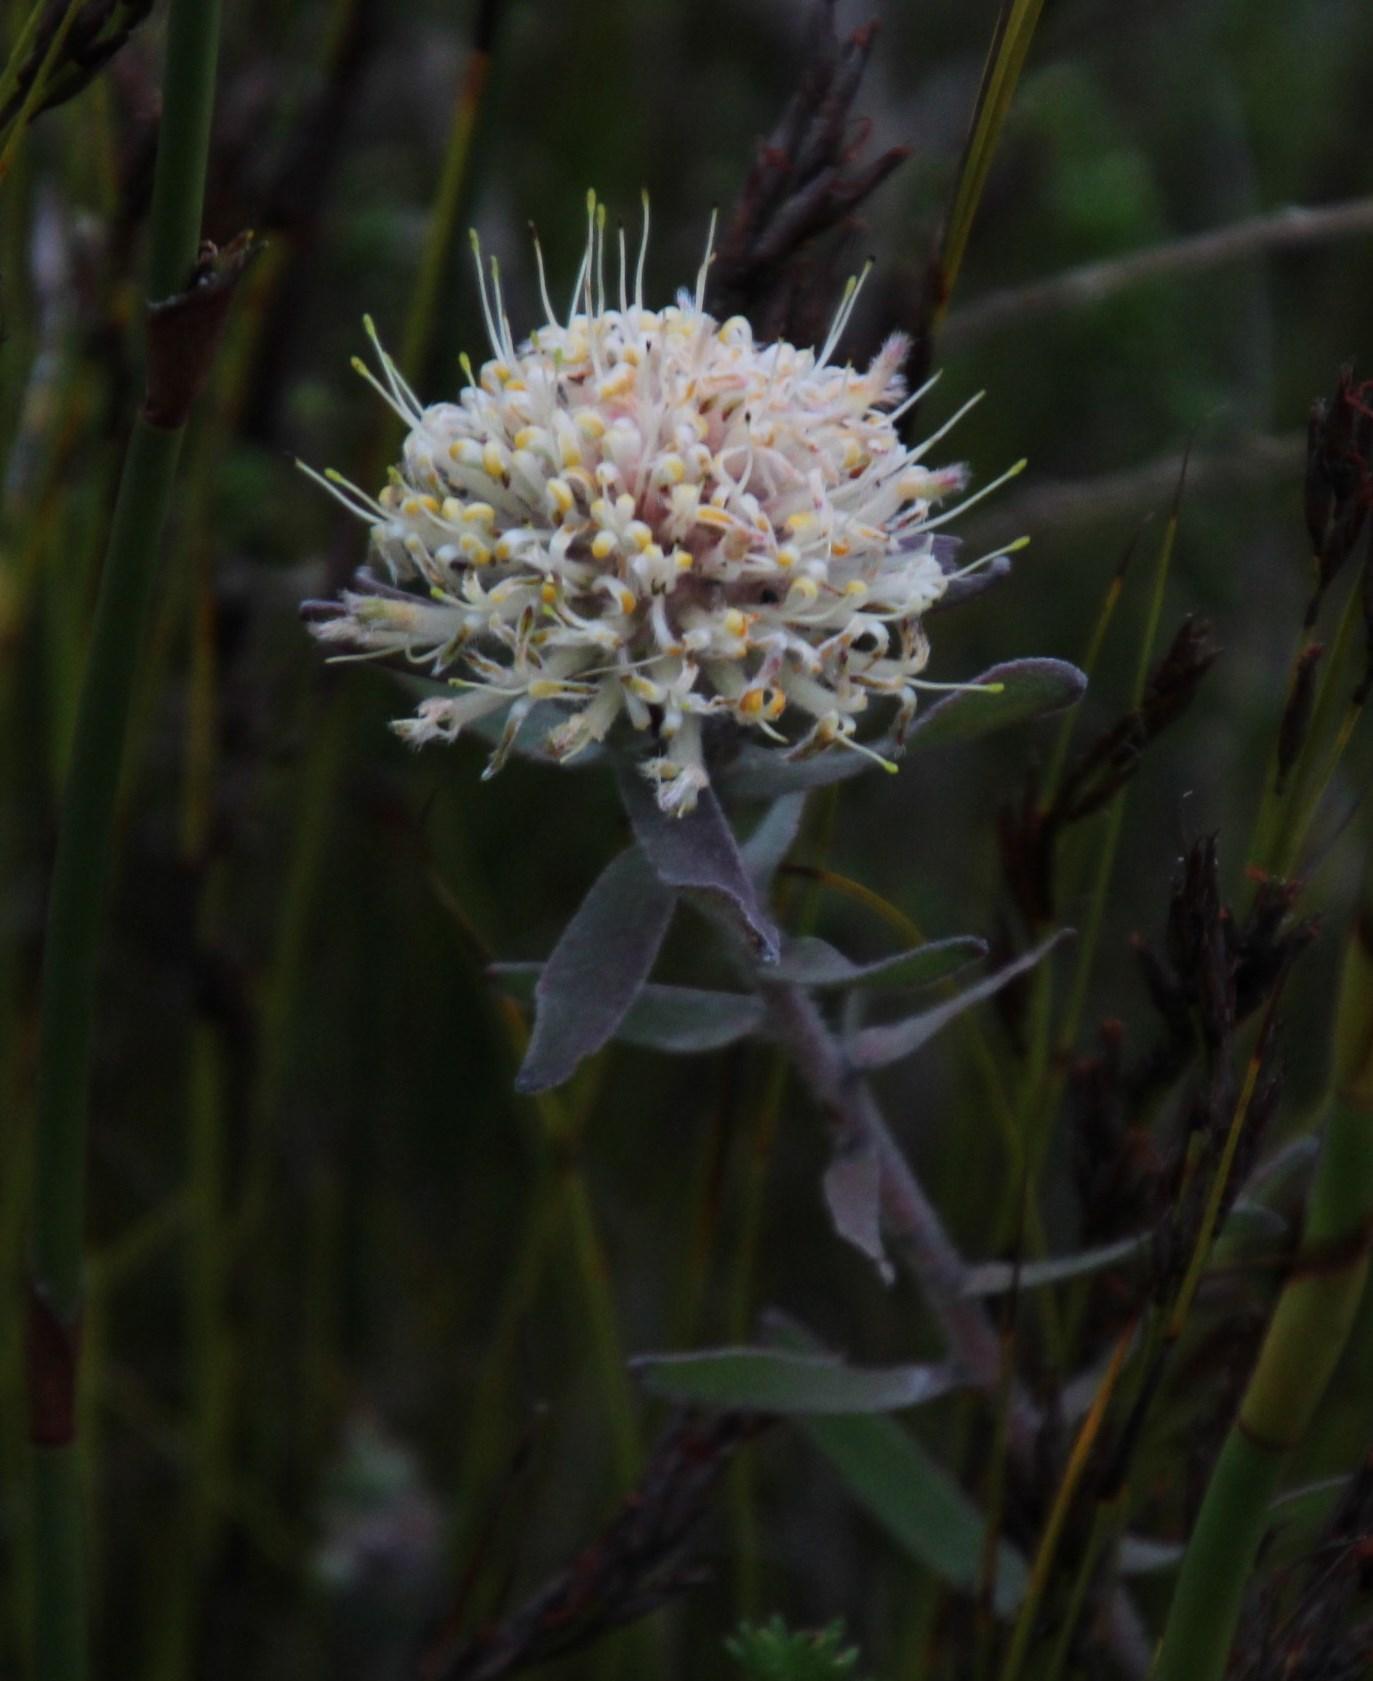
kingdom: Plantae
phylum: Tracheophyta
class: Magnoliopsida
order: Proteales
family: Proteaceae
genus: Leucospermum
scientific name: Leucospermum pedunculatum
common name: White-trailing pincushion
